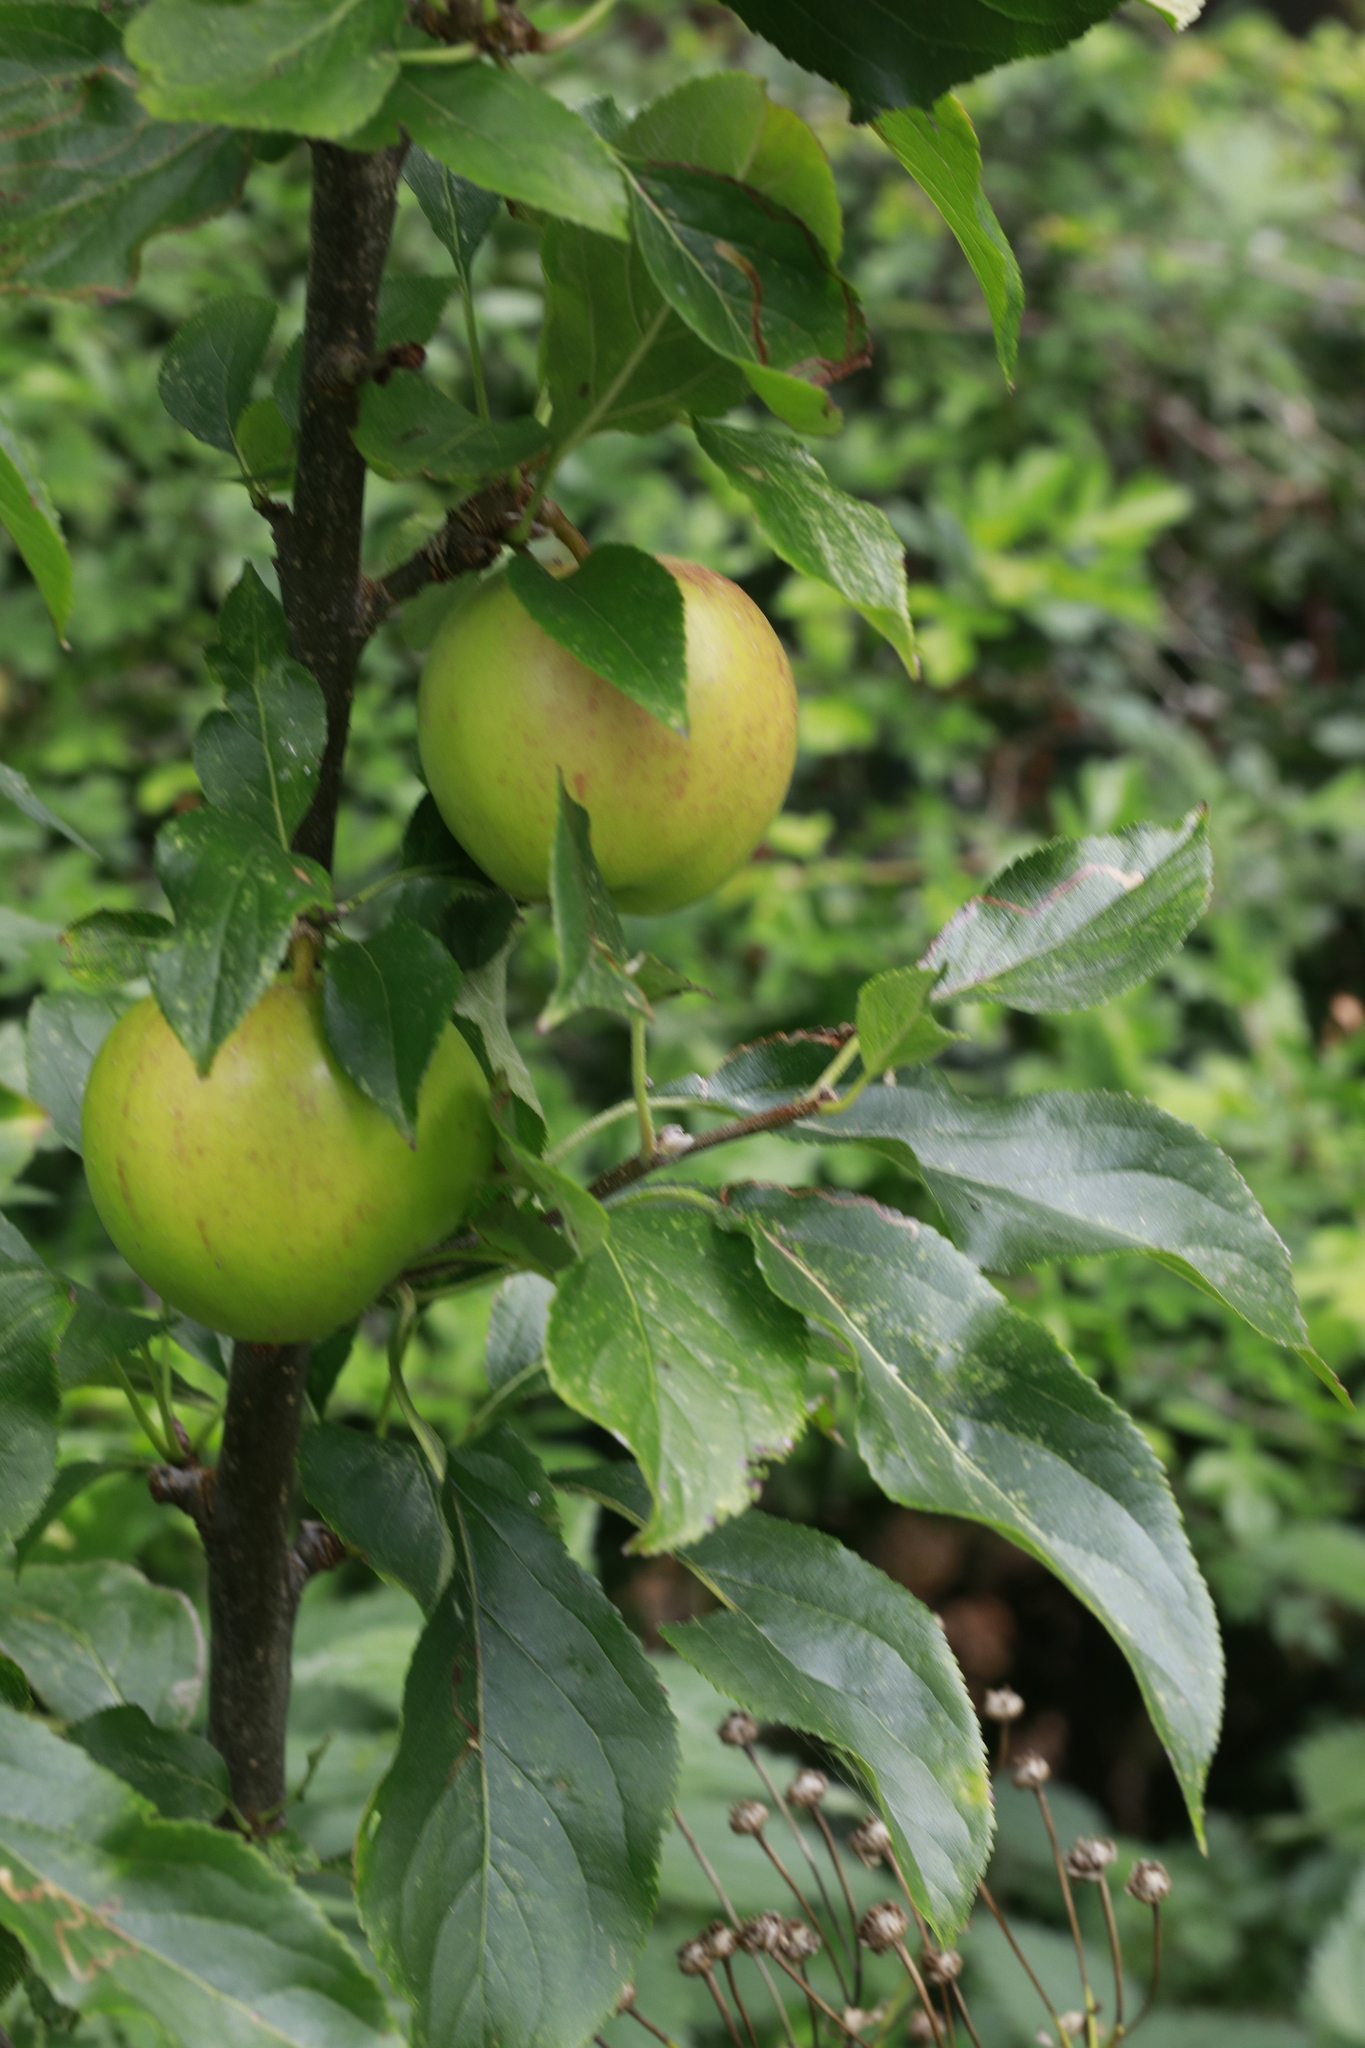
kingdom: Plantae
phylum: Tracheophyta
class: Magnoliopsida
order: Rosales
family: Rosaceae
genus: Malus
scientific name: Malus domestica
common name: Apple
